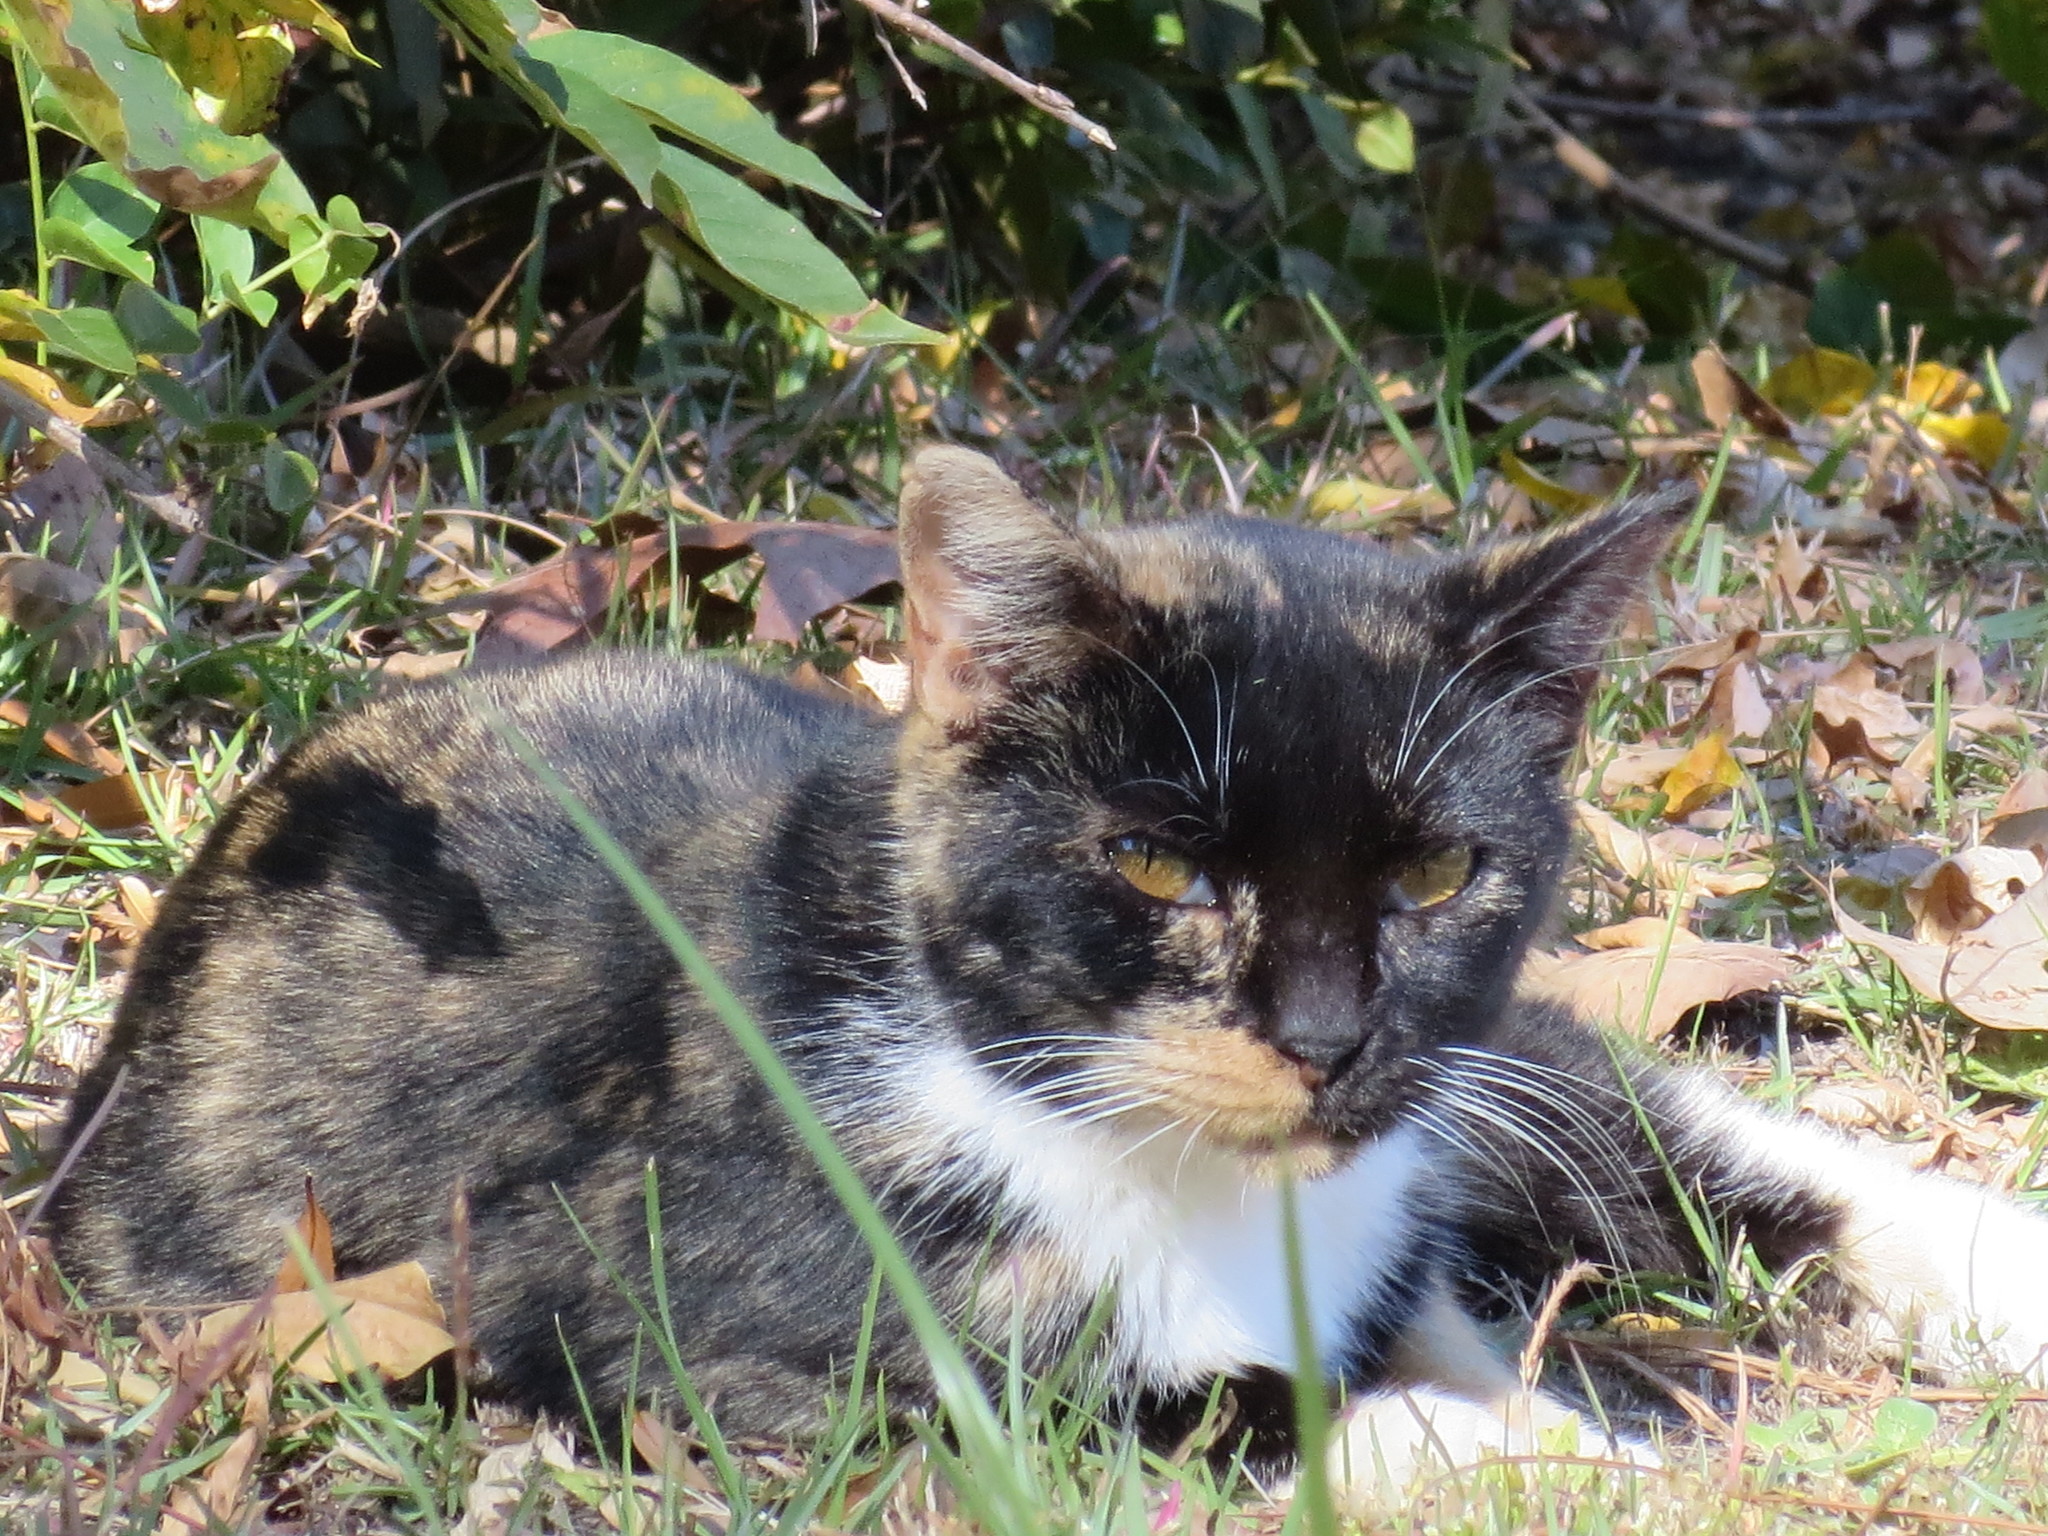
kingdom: Animalia
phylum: Chordata
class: Mammalia
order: Carnivora
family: Felidae
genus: Felis
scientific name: Felis catus
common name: Domestic cat
